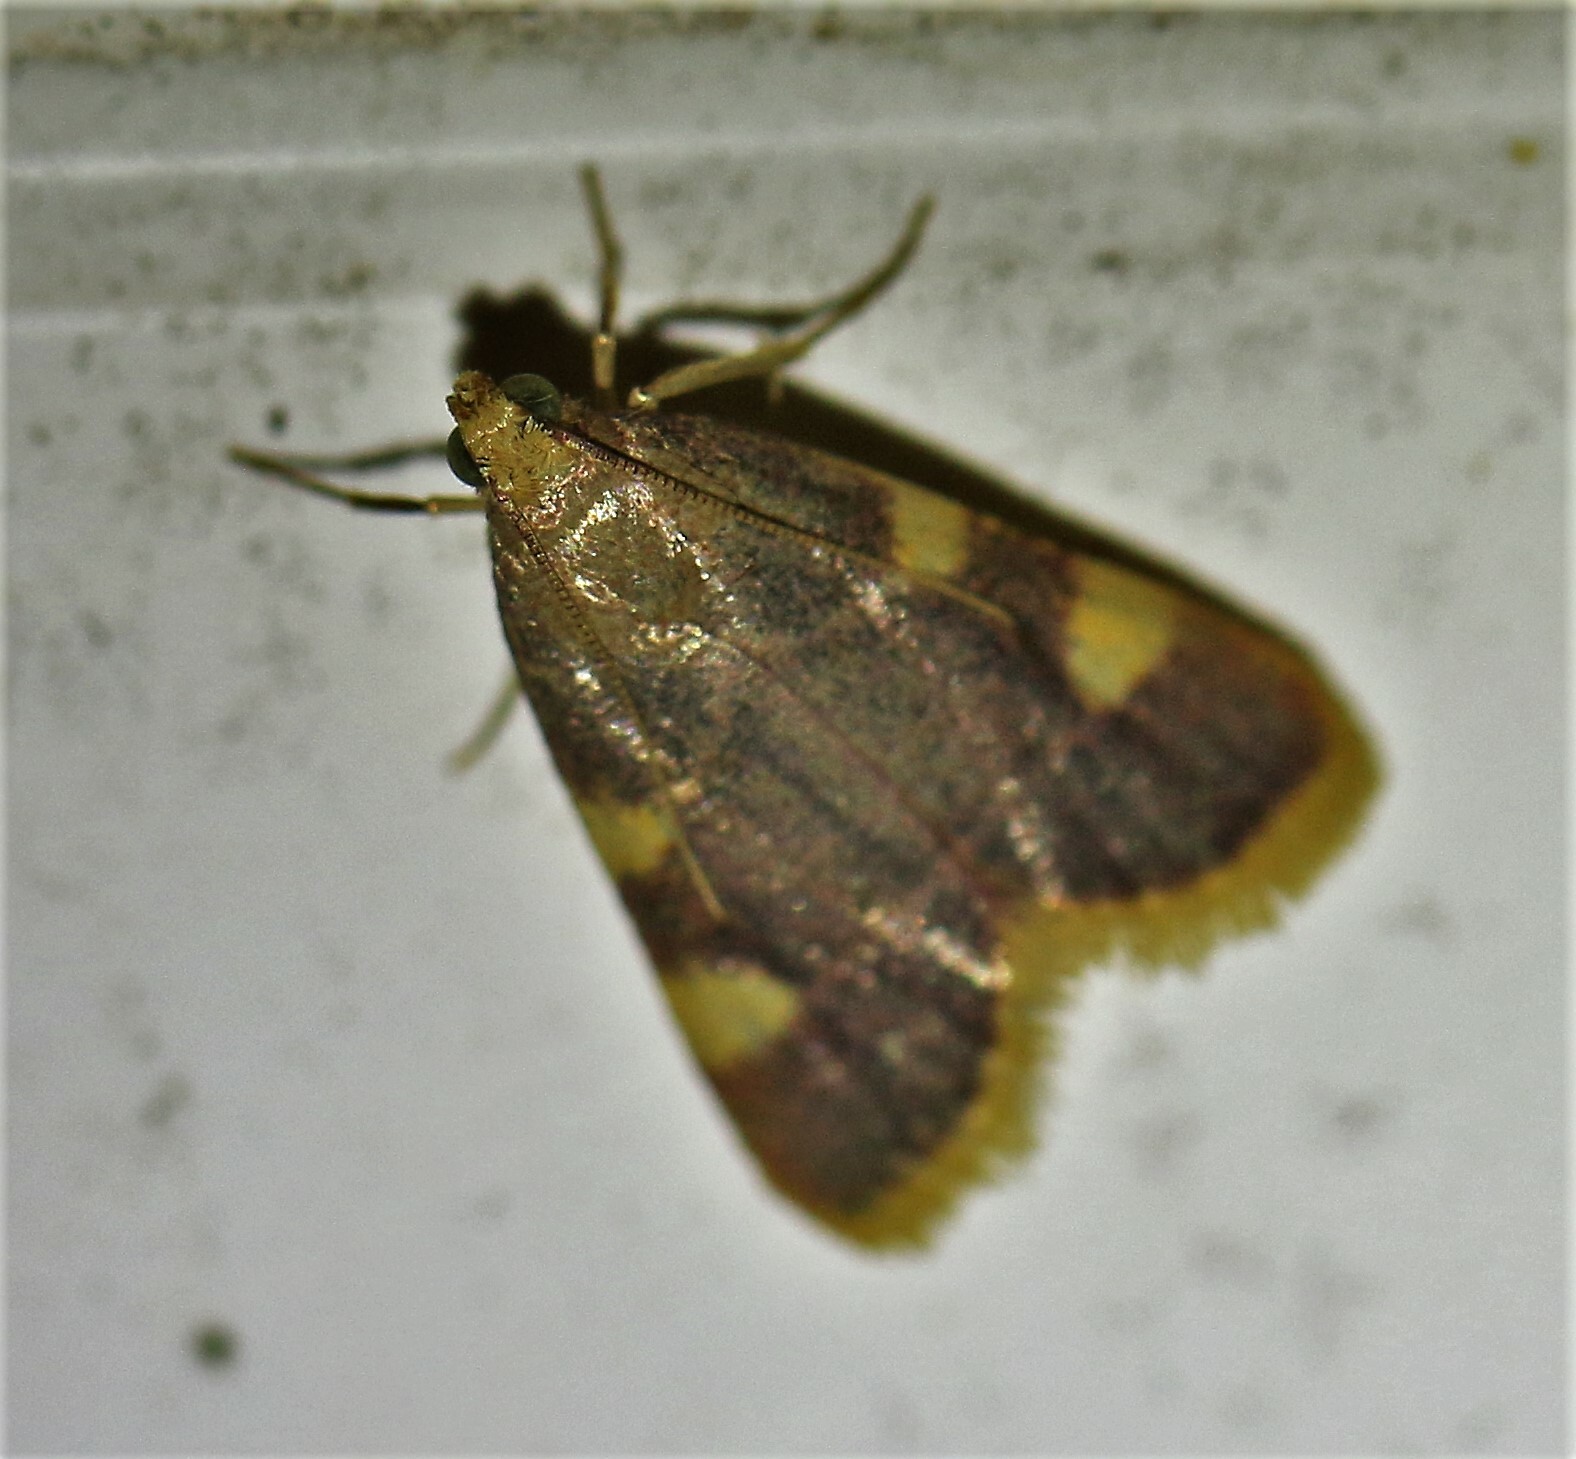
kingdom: Animalia
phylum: Arthropoda
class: Insecta
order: Lepidoptera
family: Pyralidae
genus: Hypsopygia
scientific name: Hypsopygia costalis
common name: Gold triangle
